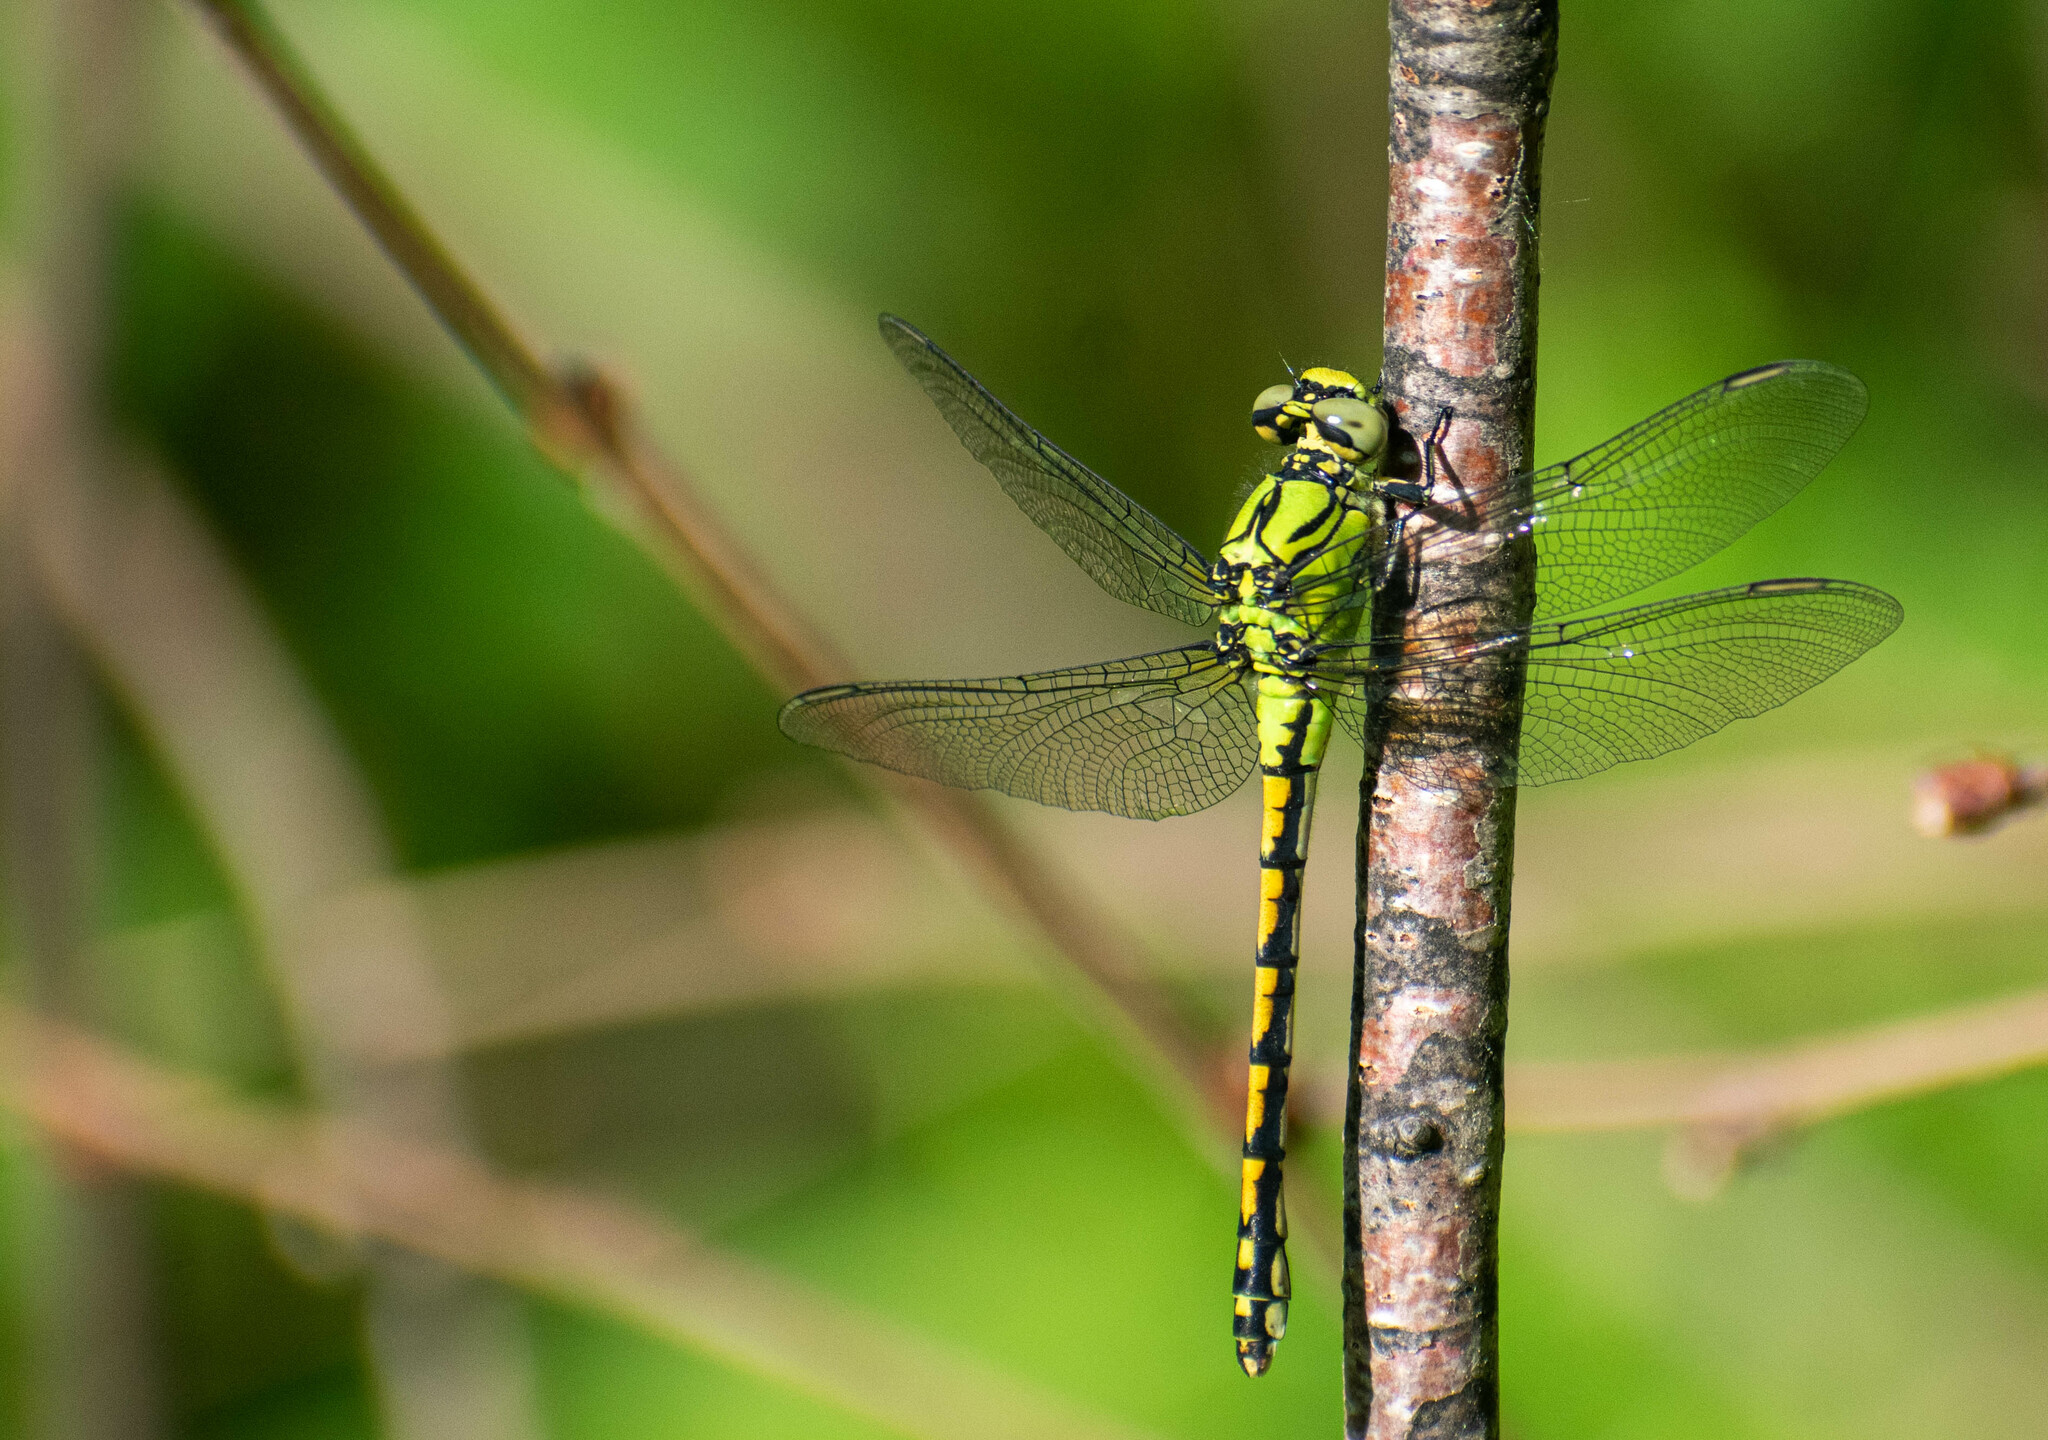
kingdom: Animalia
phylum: Arthropoda
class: Insecta
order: Odonata
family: Gomphidae
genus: Ophiogomphus
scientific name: Ophiogomphus cecilia
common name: Green snaketail
